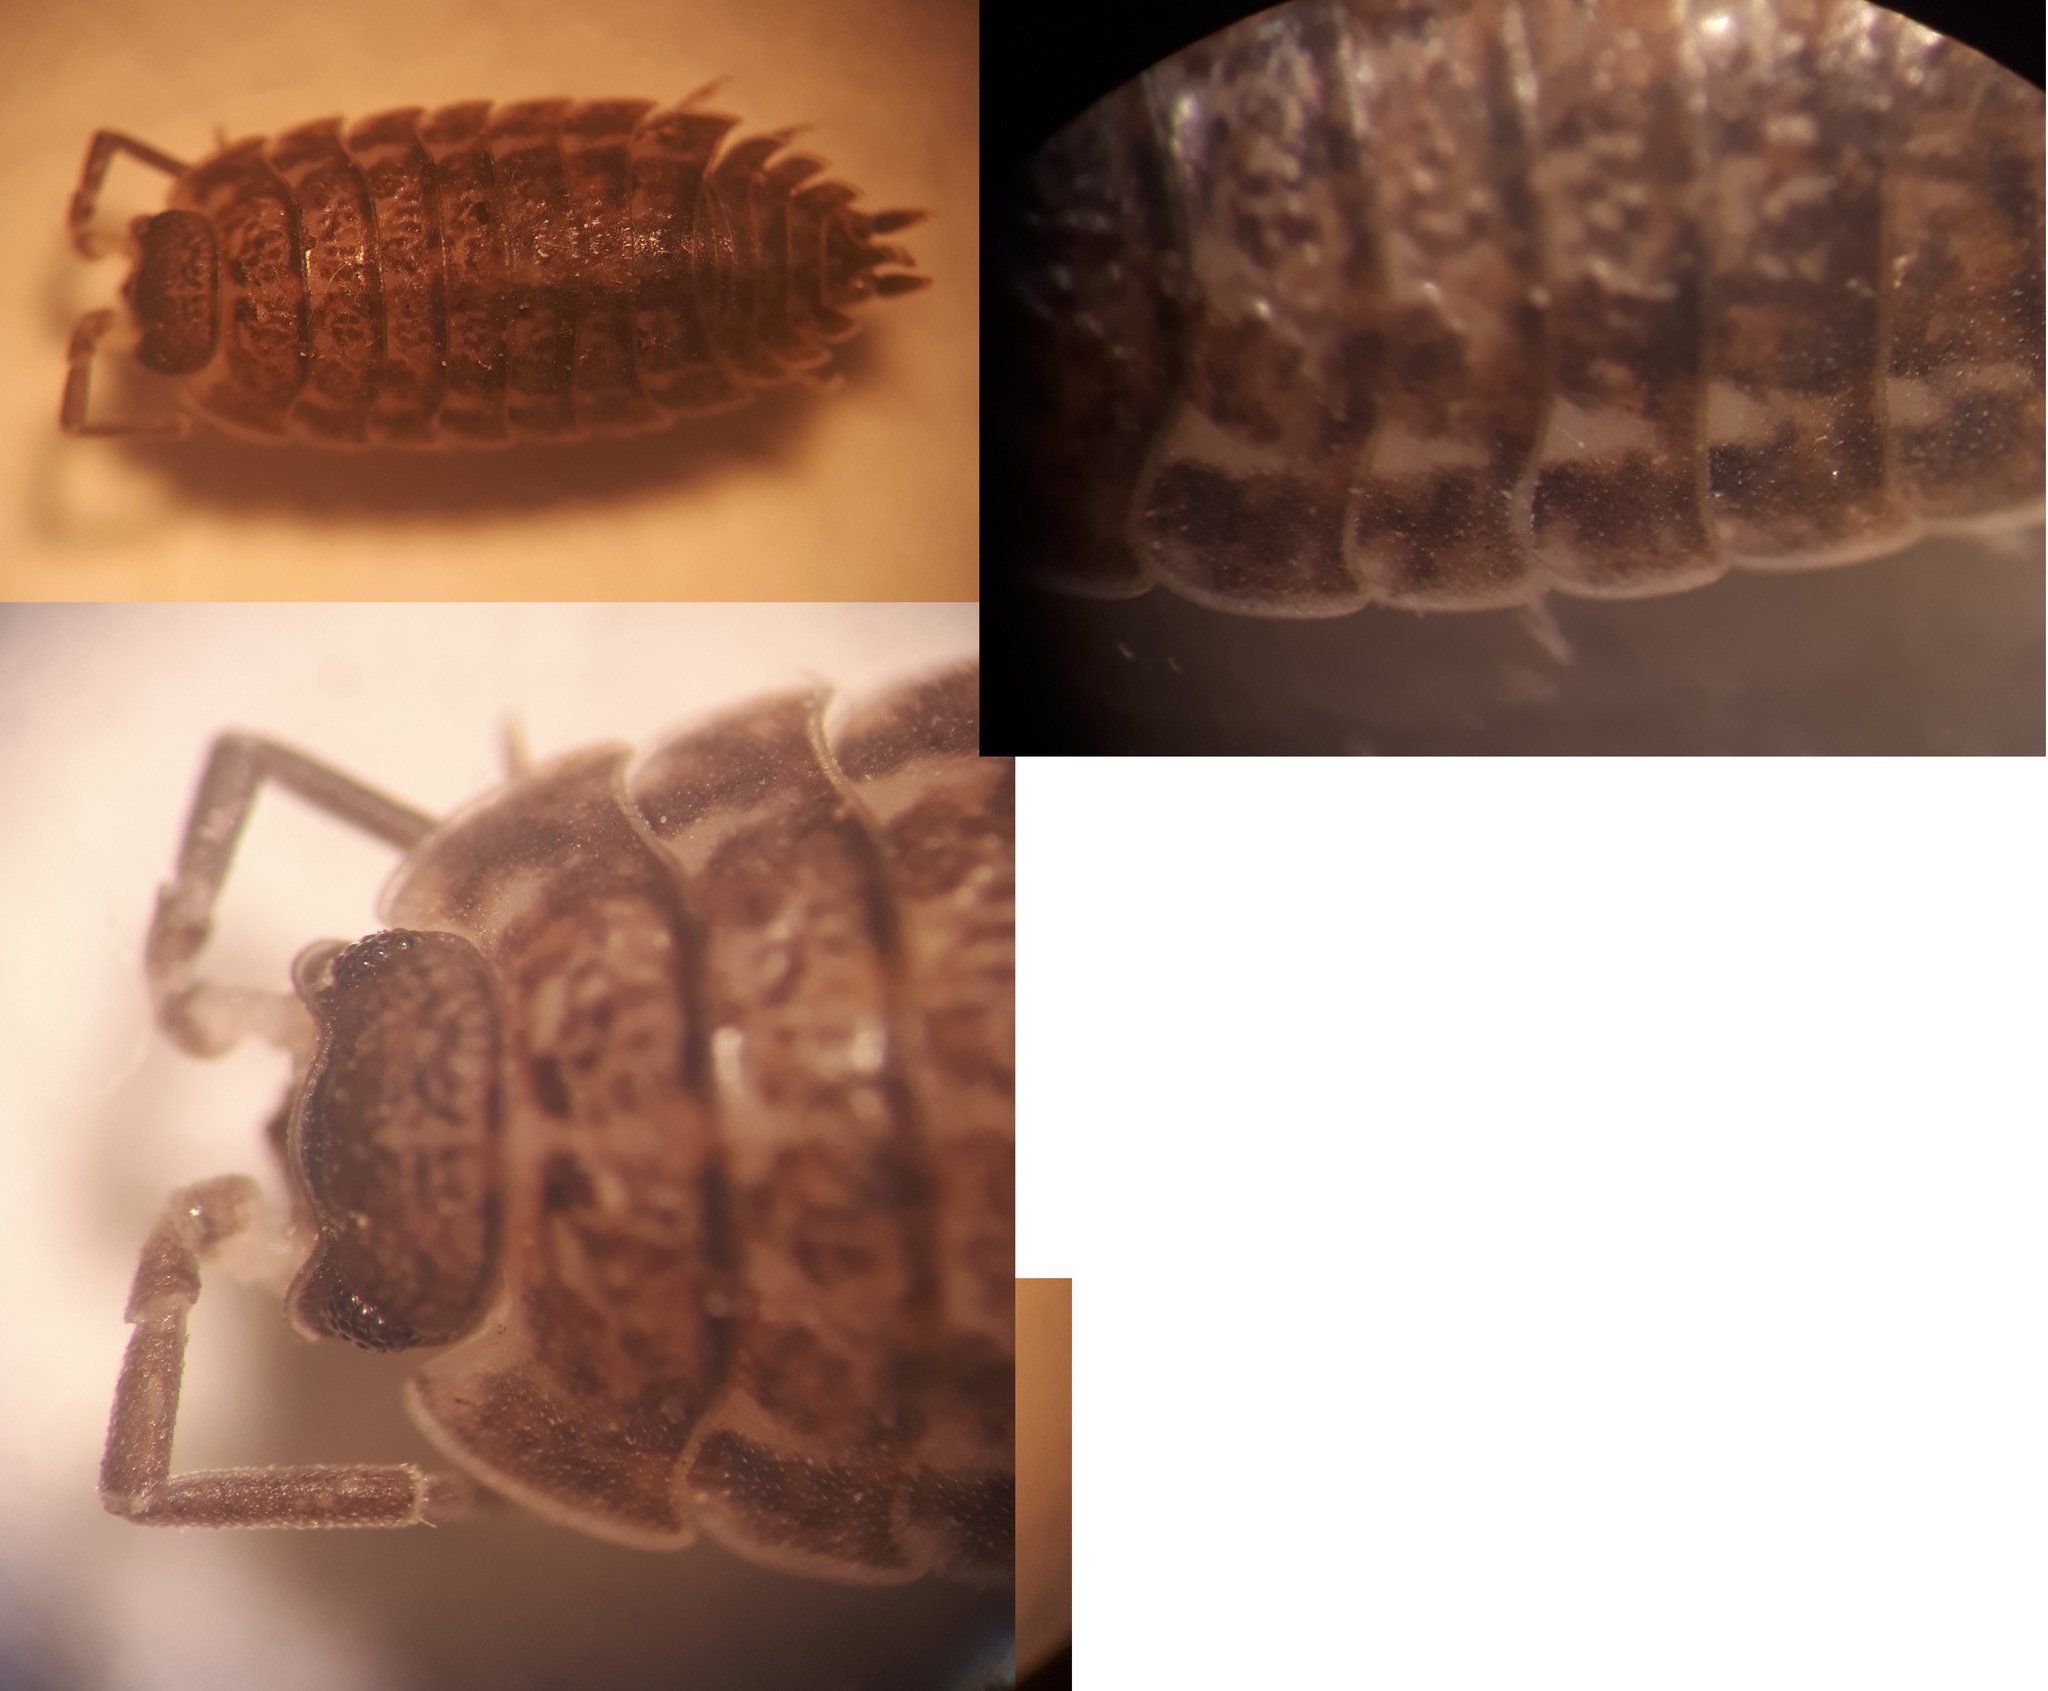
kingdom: Animalia
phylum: Arthropoda
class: Malacostraca
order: Isopoda
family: Trachelipodidae
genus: Trachelipus
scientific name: Trachelipus rathkii
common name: Isopod
